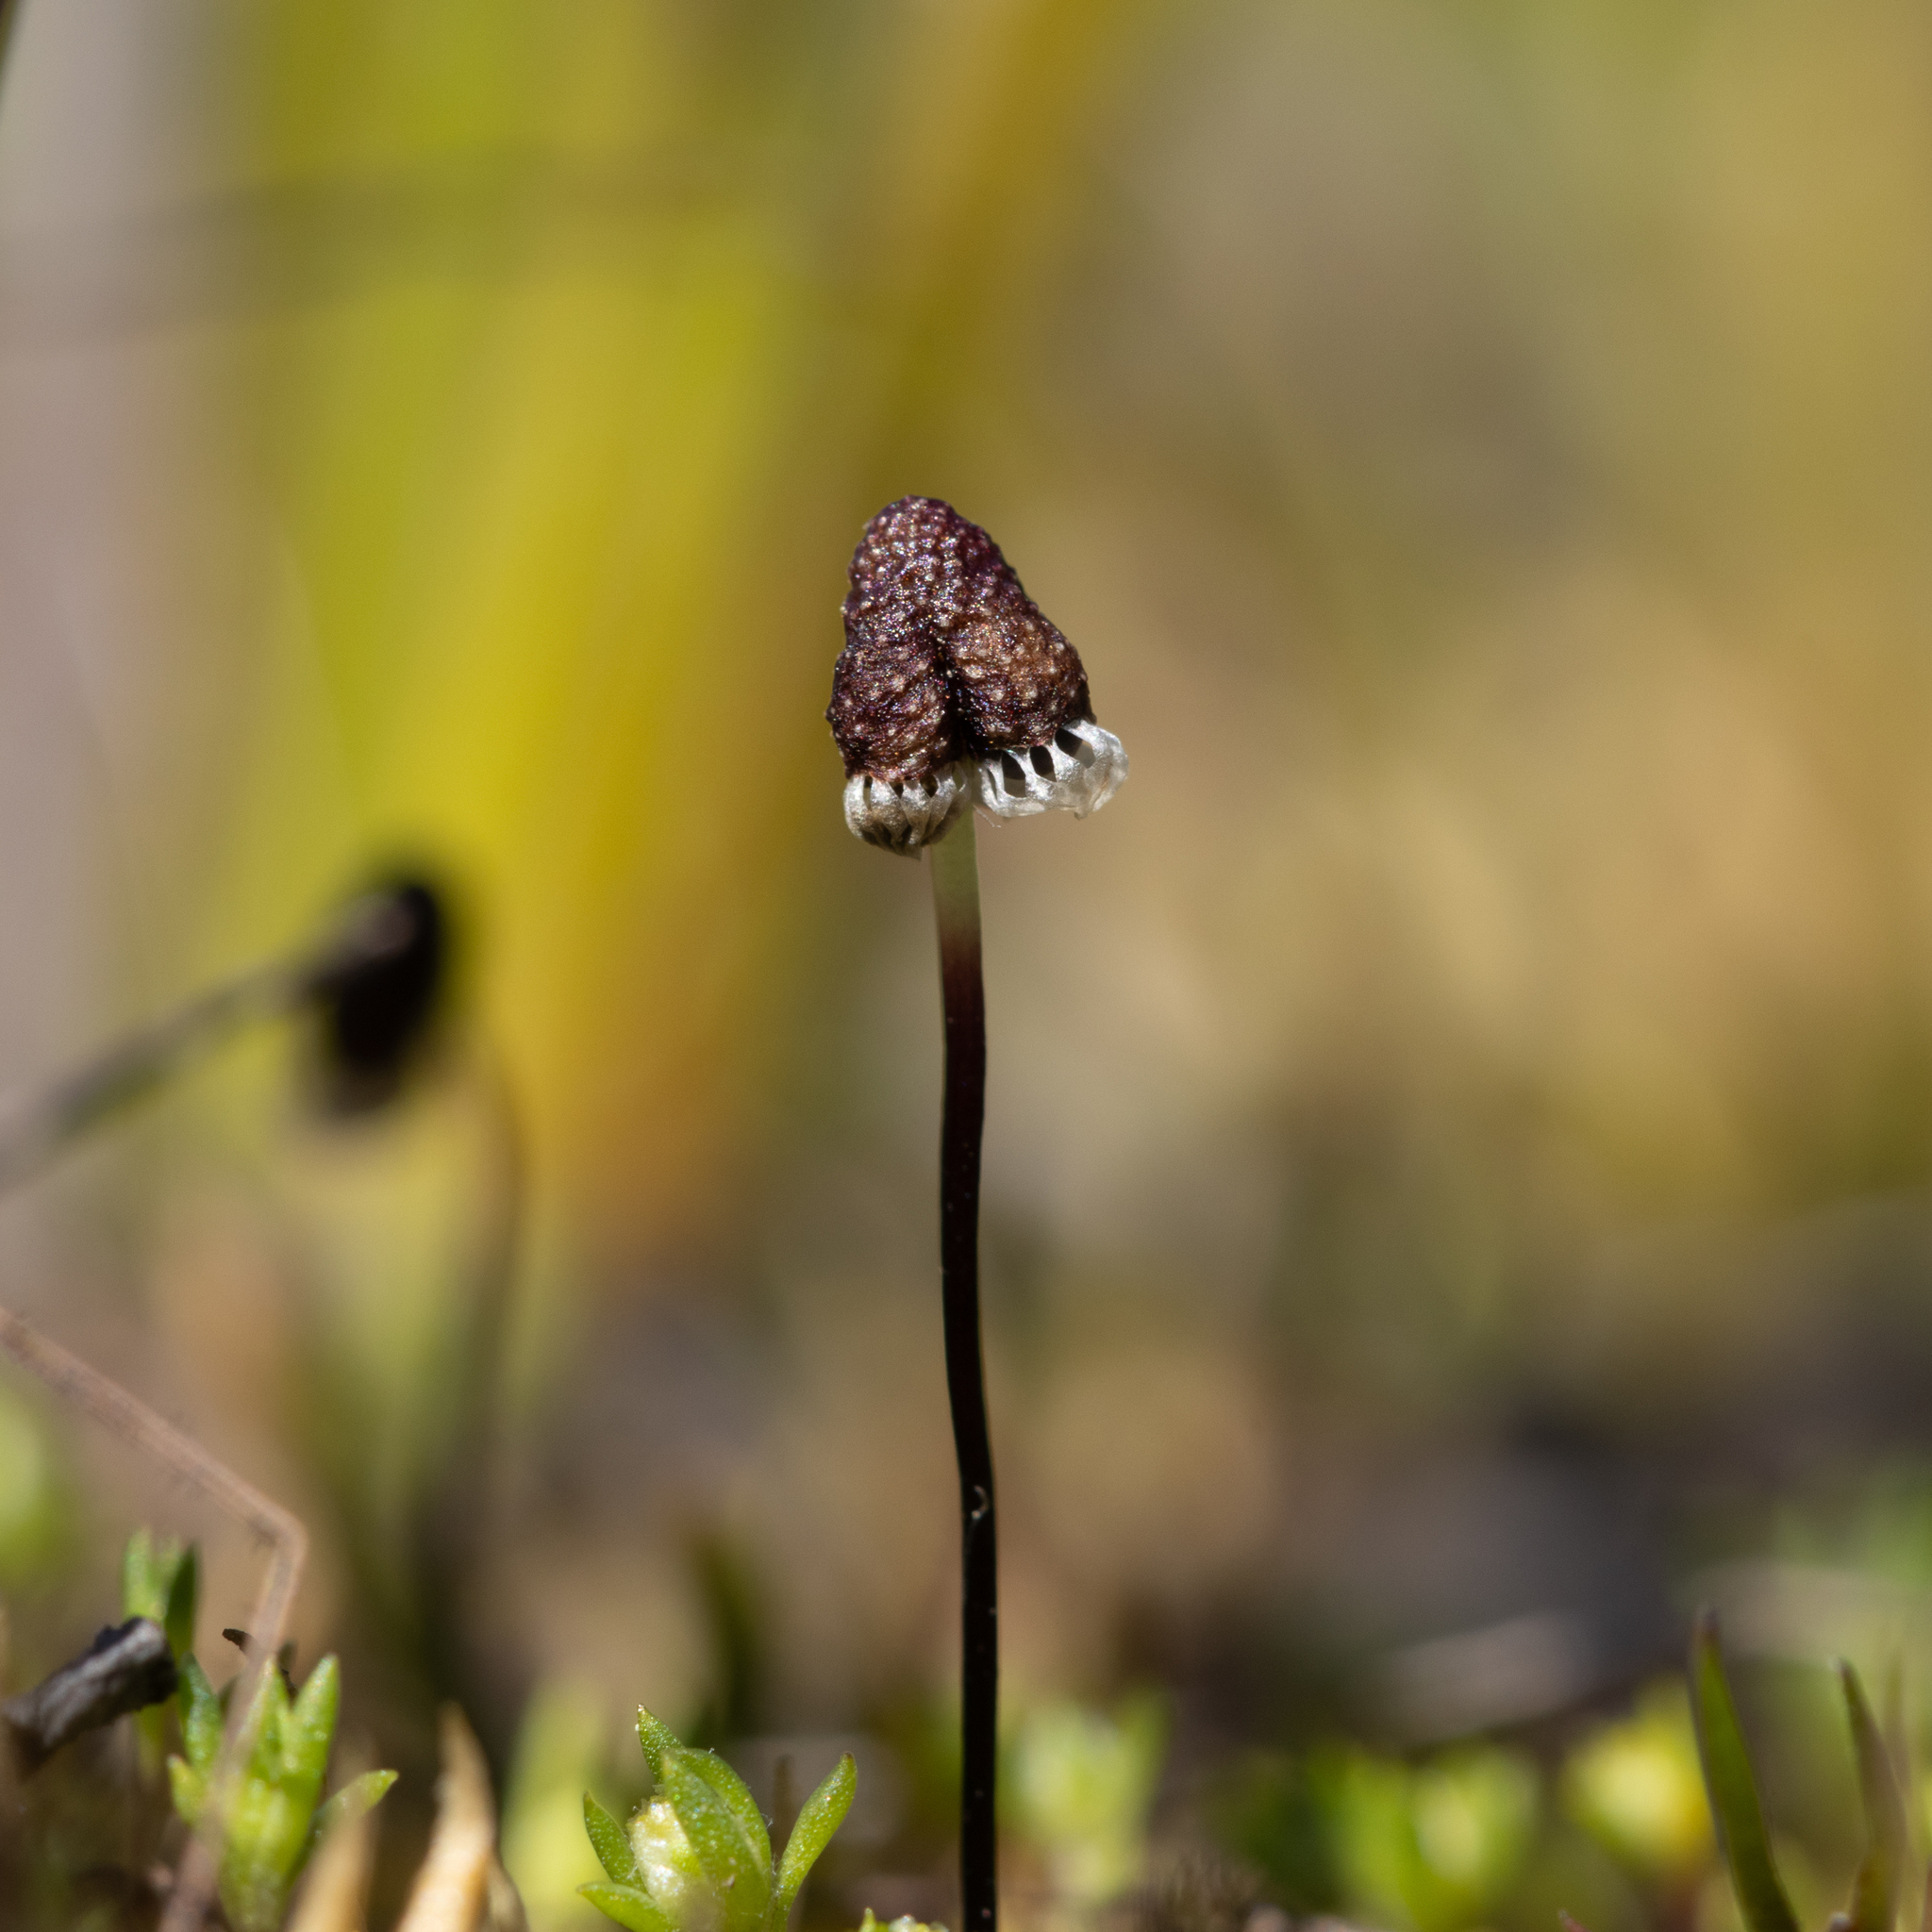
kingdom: Plantae
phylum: Marchantiophyta
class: Marchantiopsida
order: Marchantiales
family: Aytoniaceae
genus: Asterella
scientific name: Asterella drummondii
